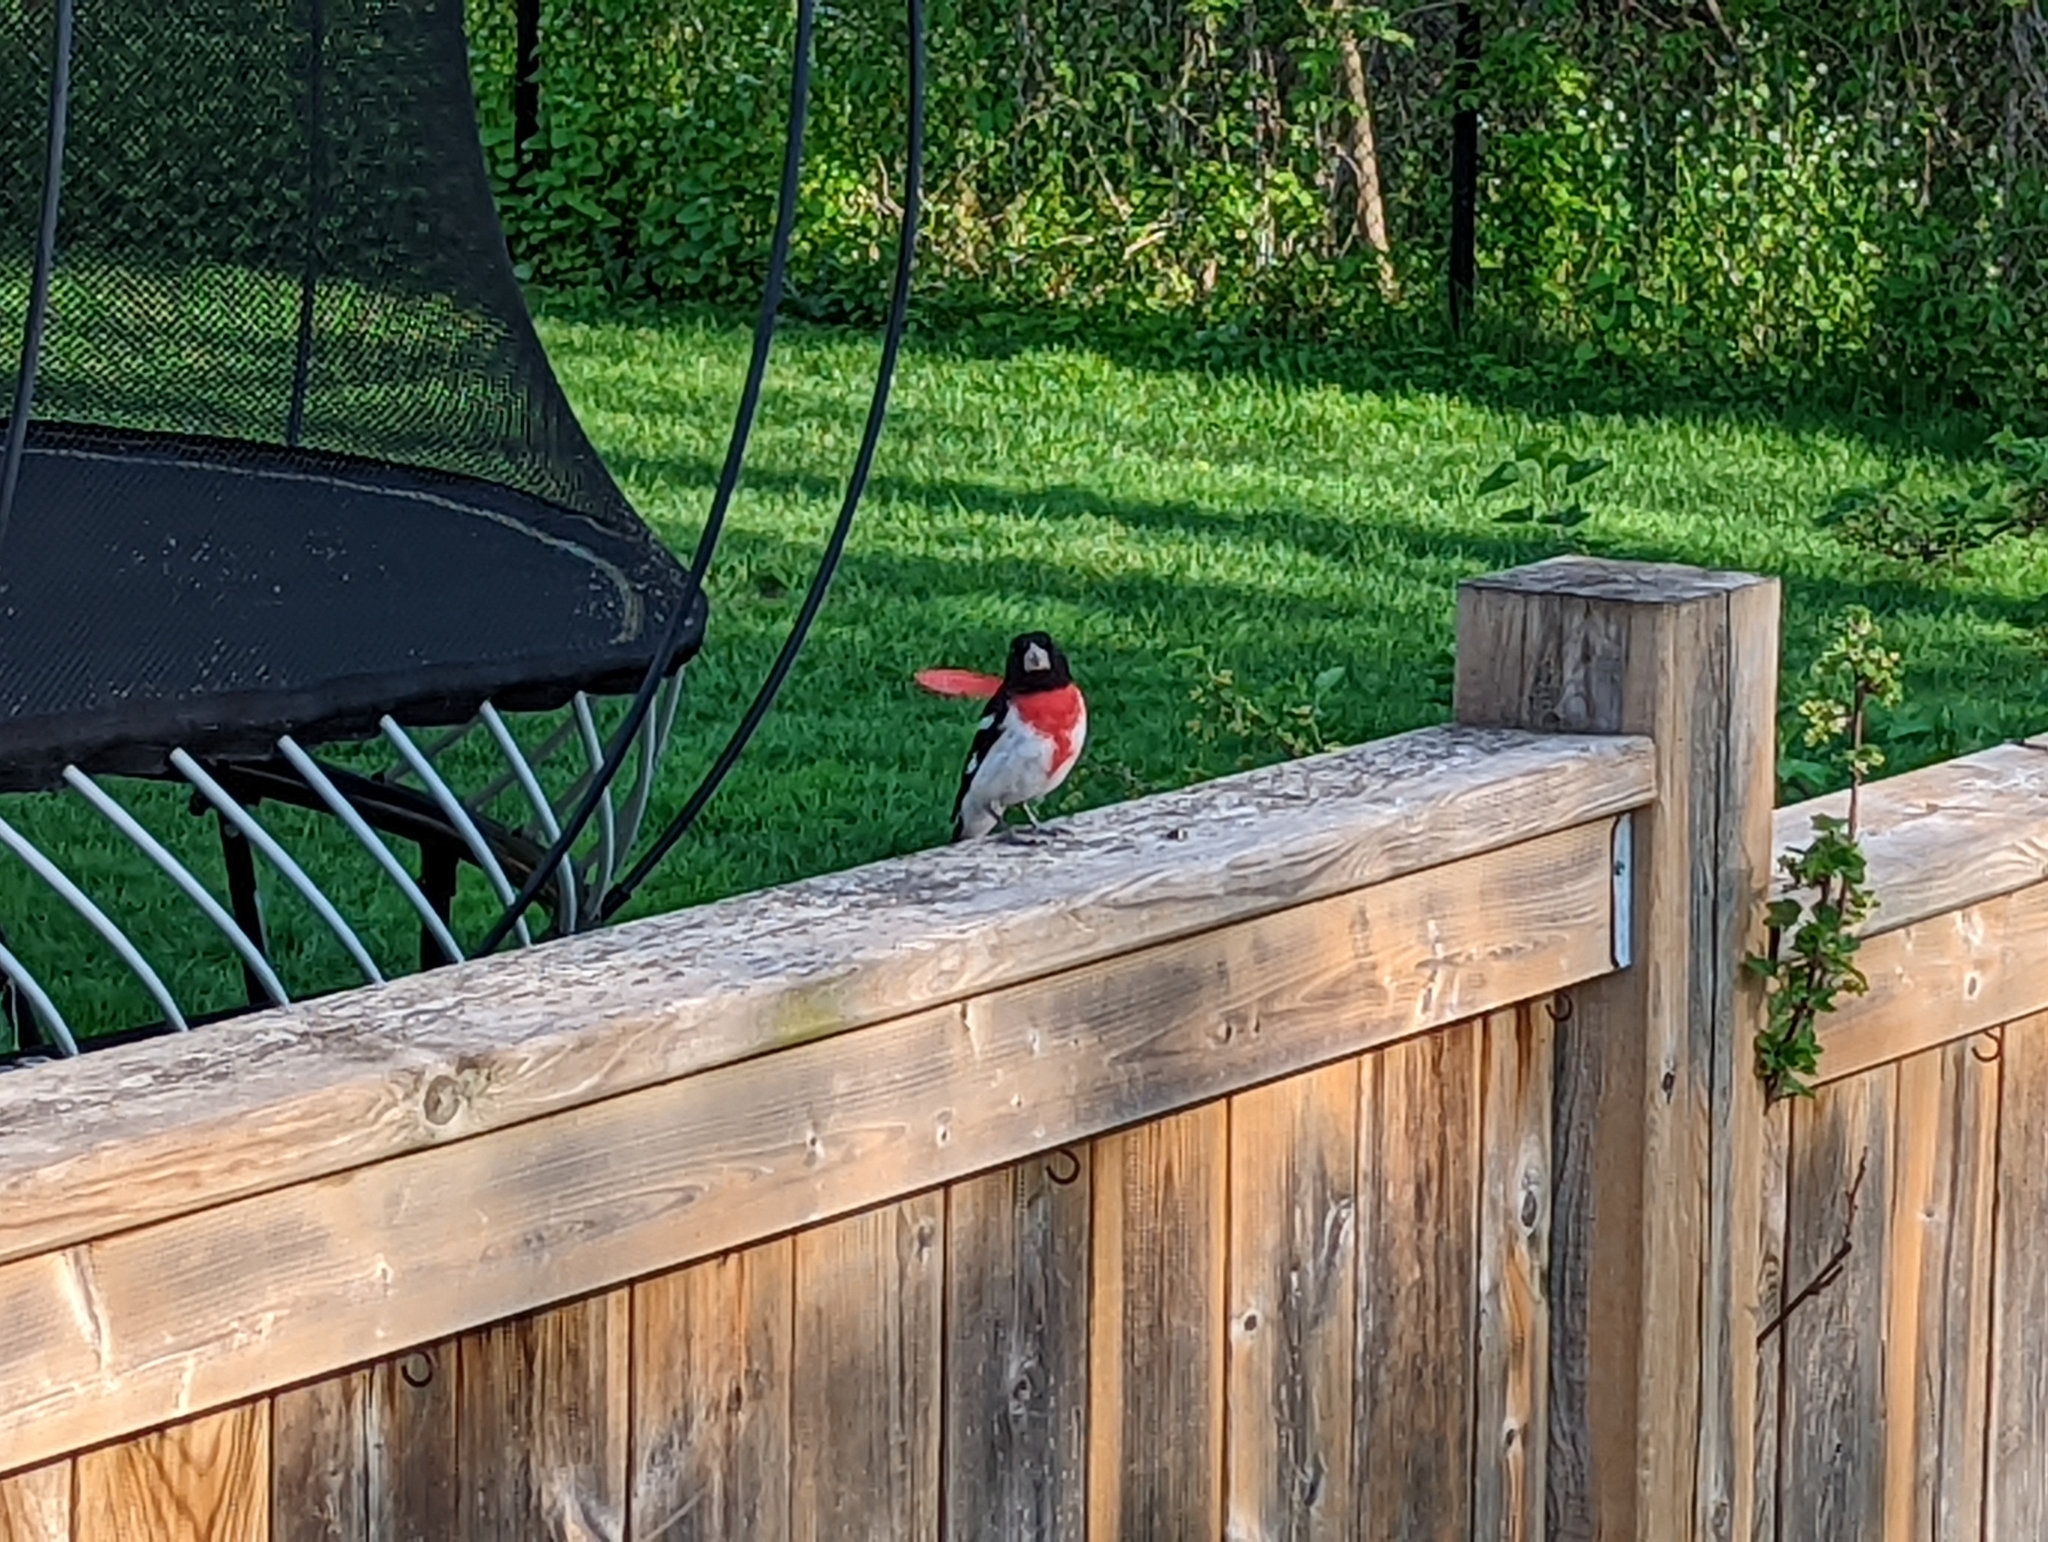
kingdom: Animalia
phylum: Chordata
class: Aves
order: Passeriformes
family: Cardinalidae
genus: Pheucticus
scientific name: Pheucticus ludovicianus
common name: Rose-breasted grosbeak
